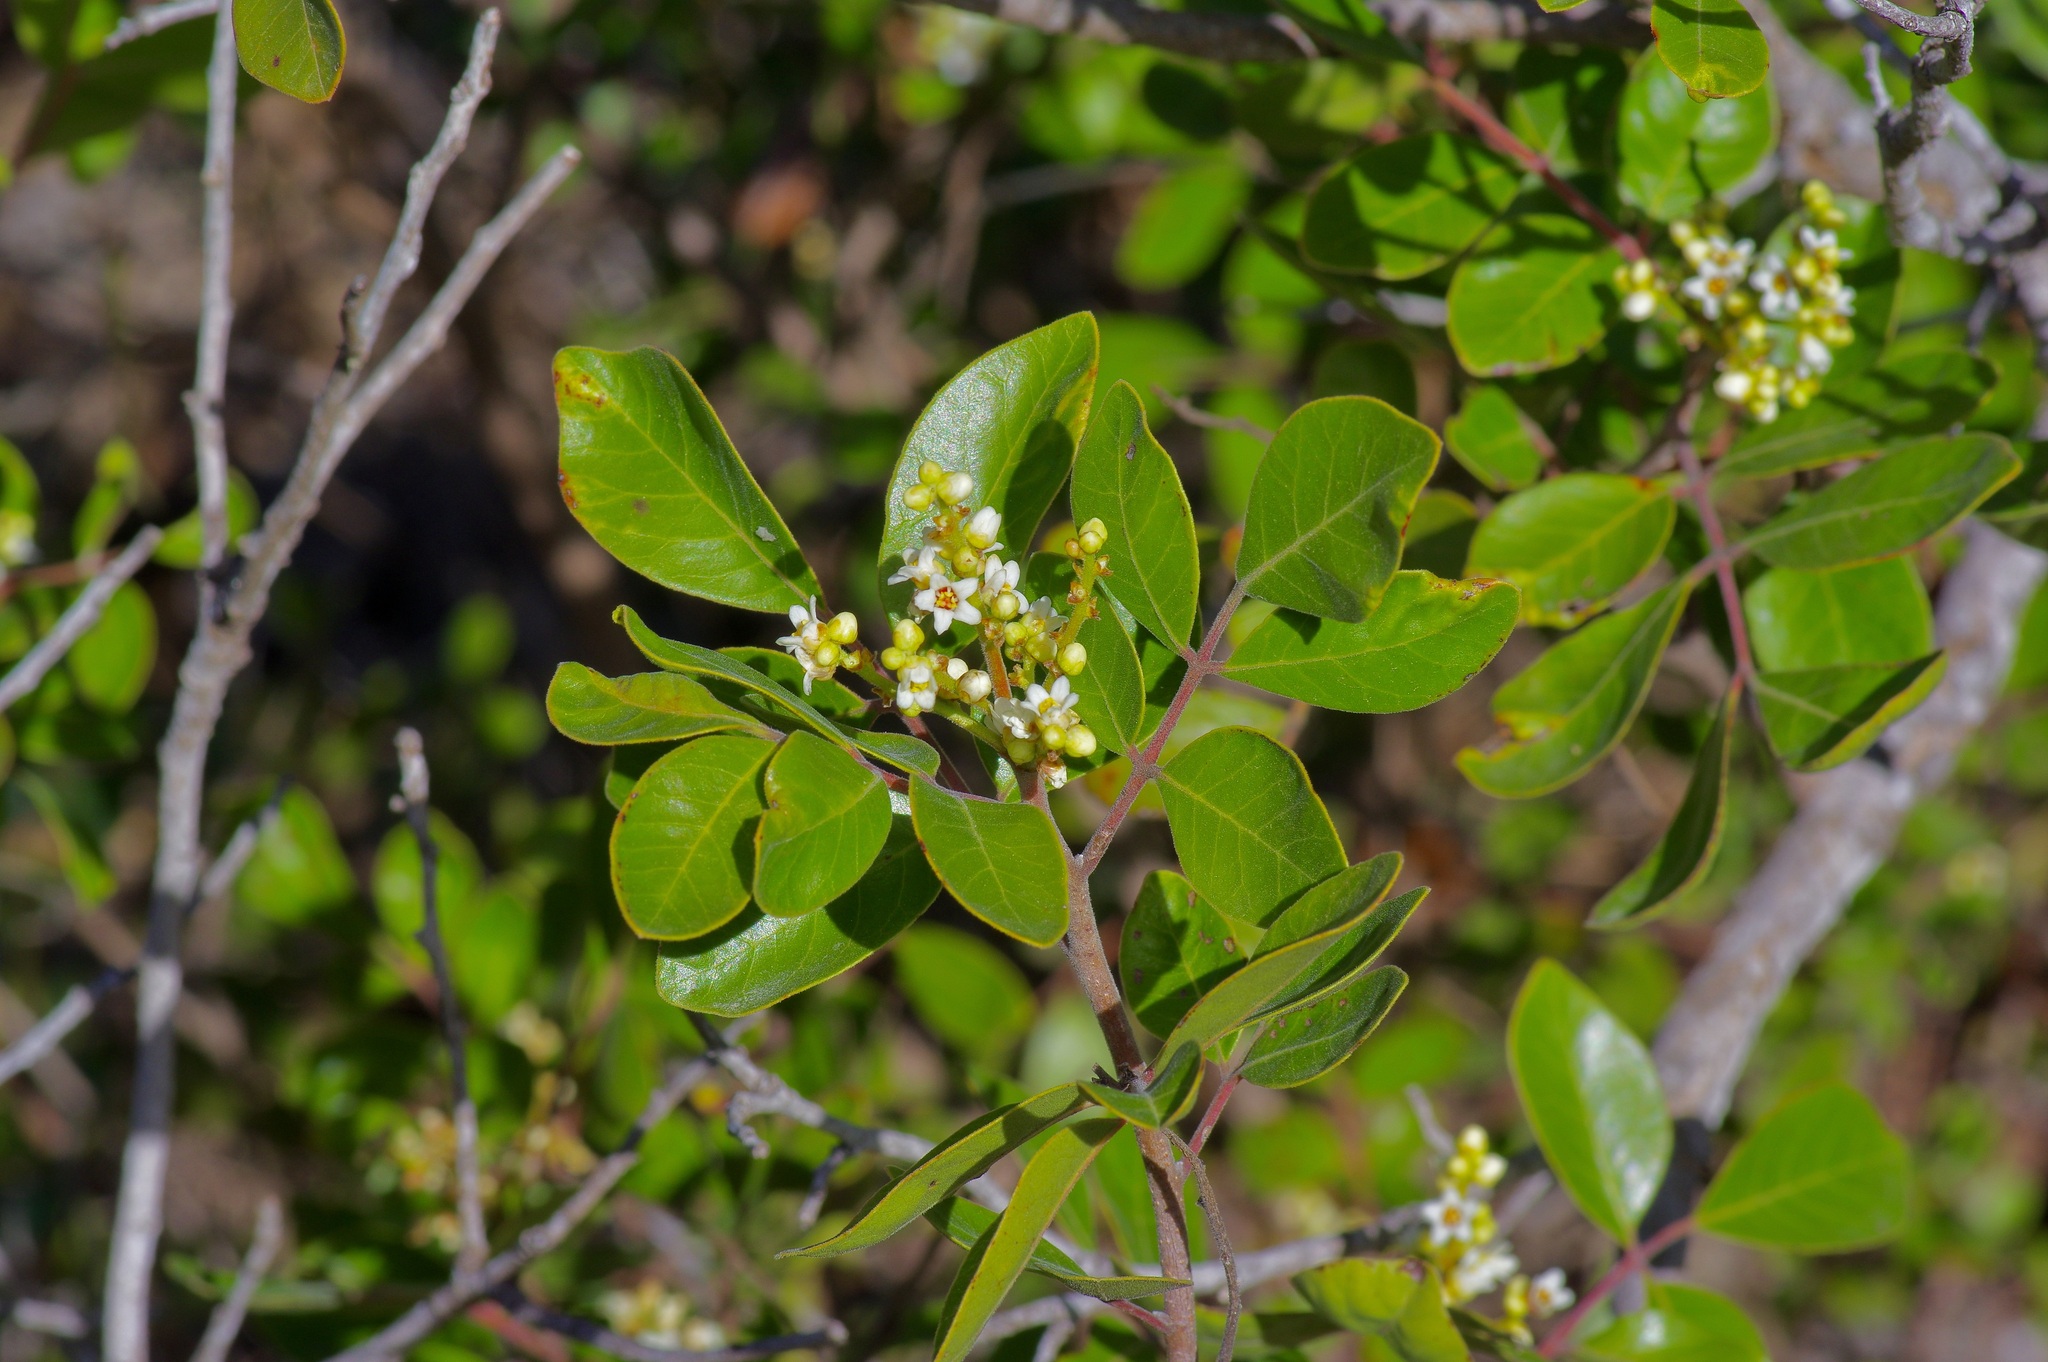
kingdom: Plantae
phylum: Tracheophyta
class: Magnoliopsida
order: Sapindales
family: Anacardiaceae
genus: Rhus
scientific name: Rhus virens
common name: Evergreen sumac
